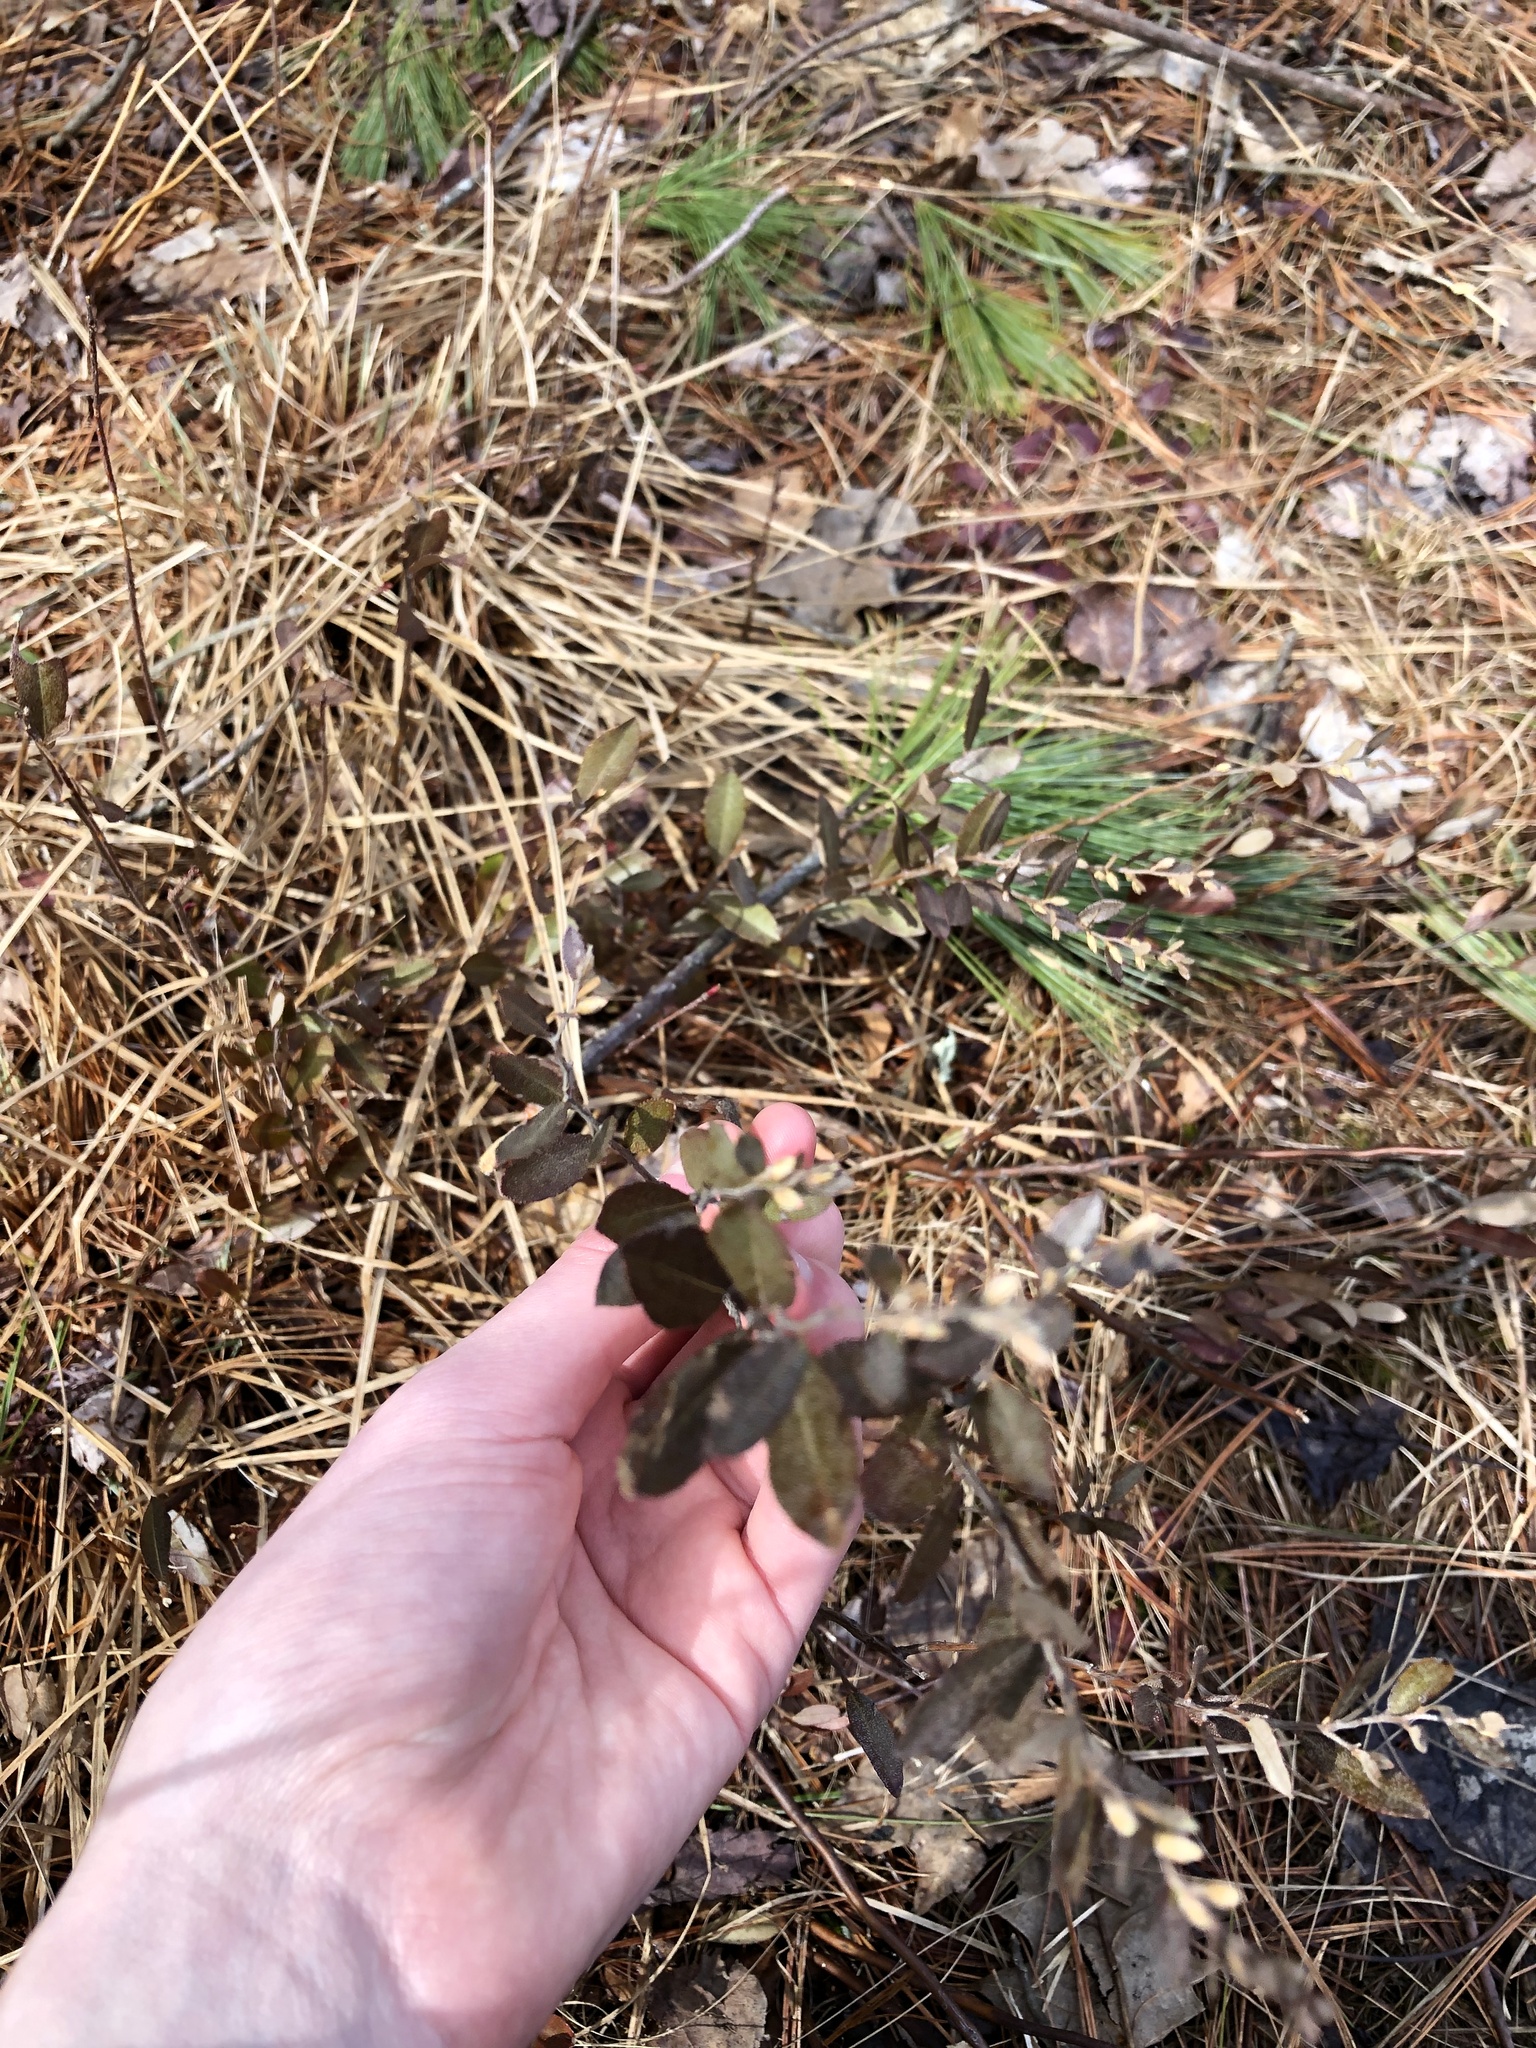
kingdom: Plantae
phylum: Tracheophyta
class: Magnoliopsida
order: Ericales
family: Ericaceae
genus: Chamaedaphne
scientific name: Chamaedaphne calyculata
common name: Leatherleaf
